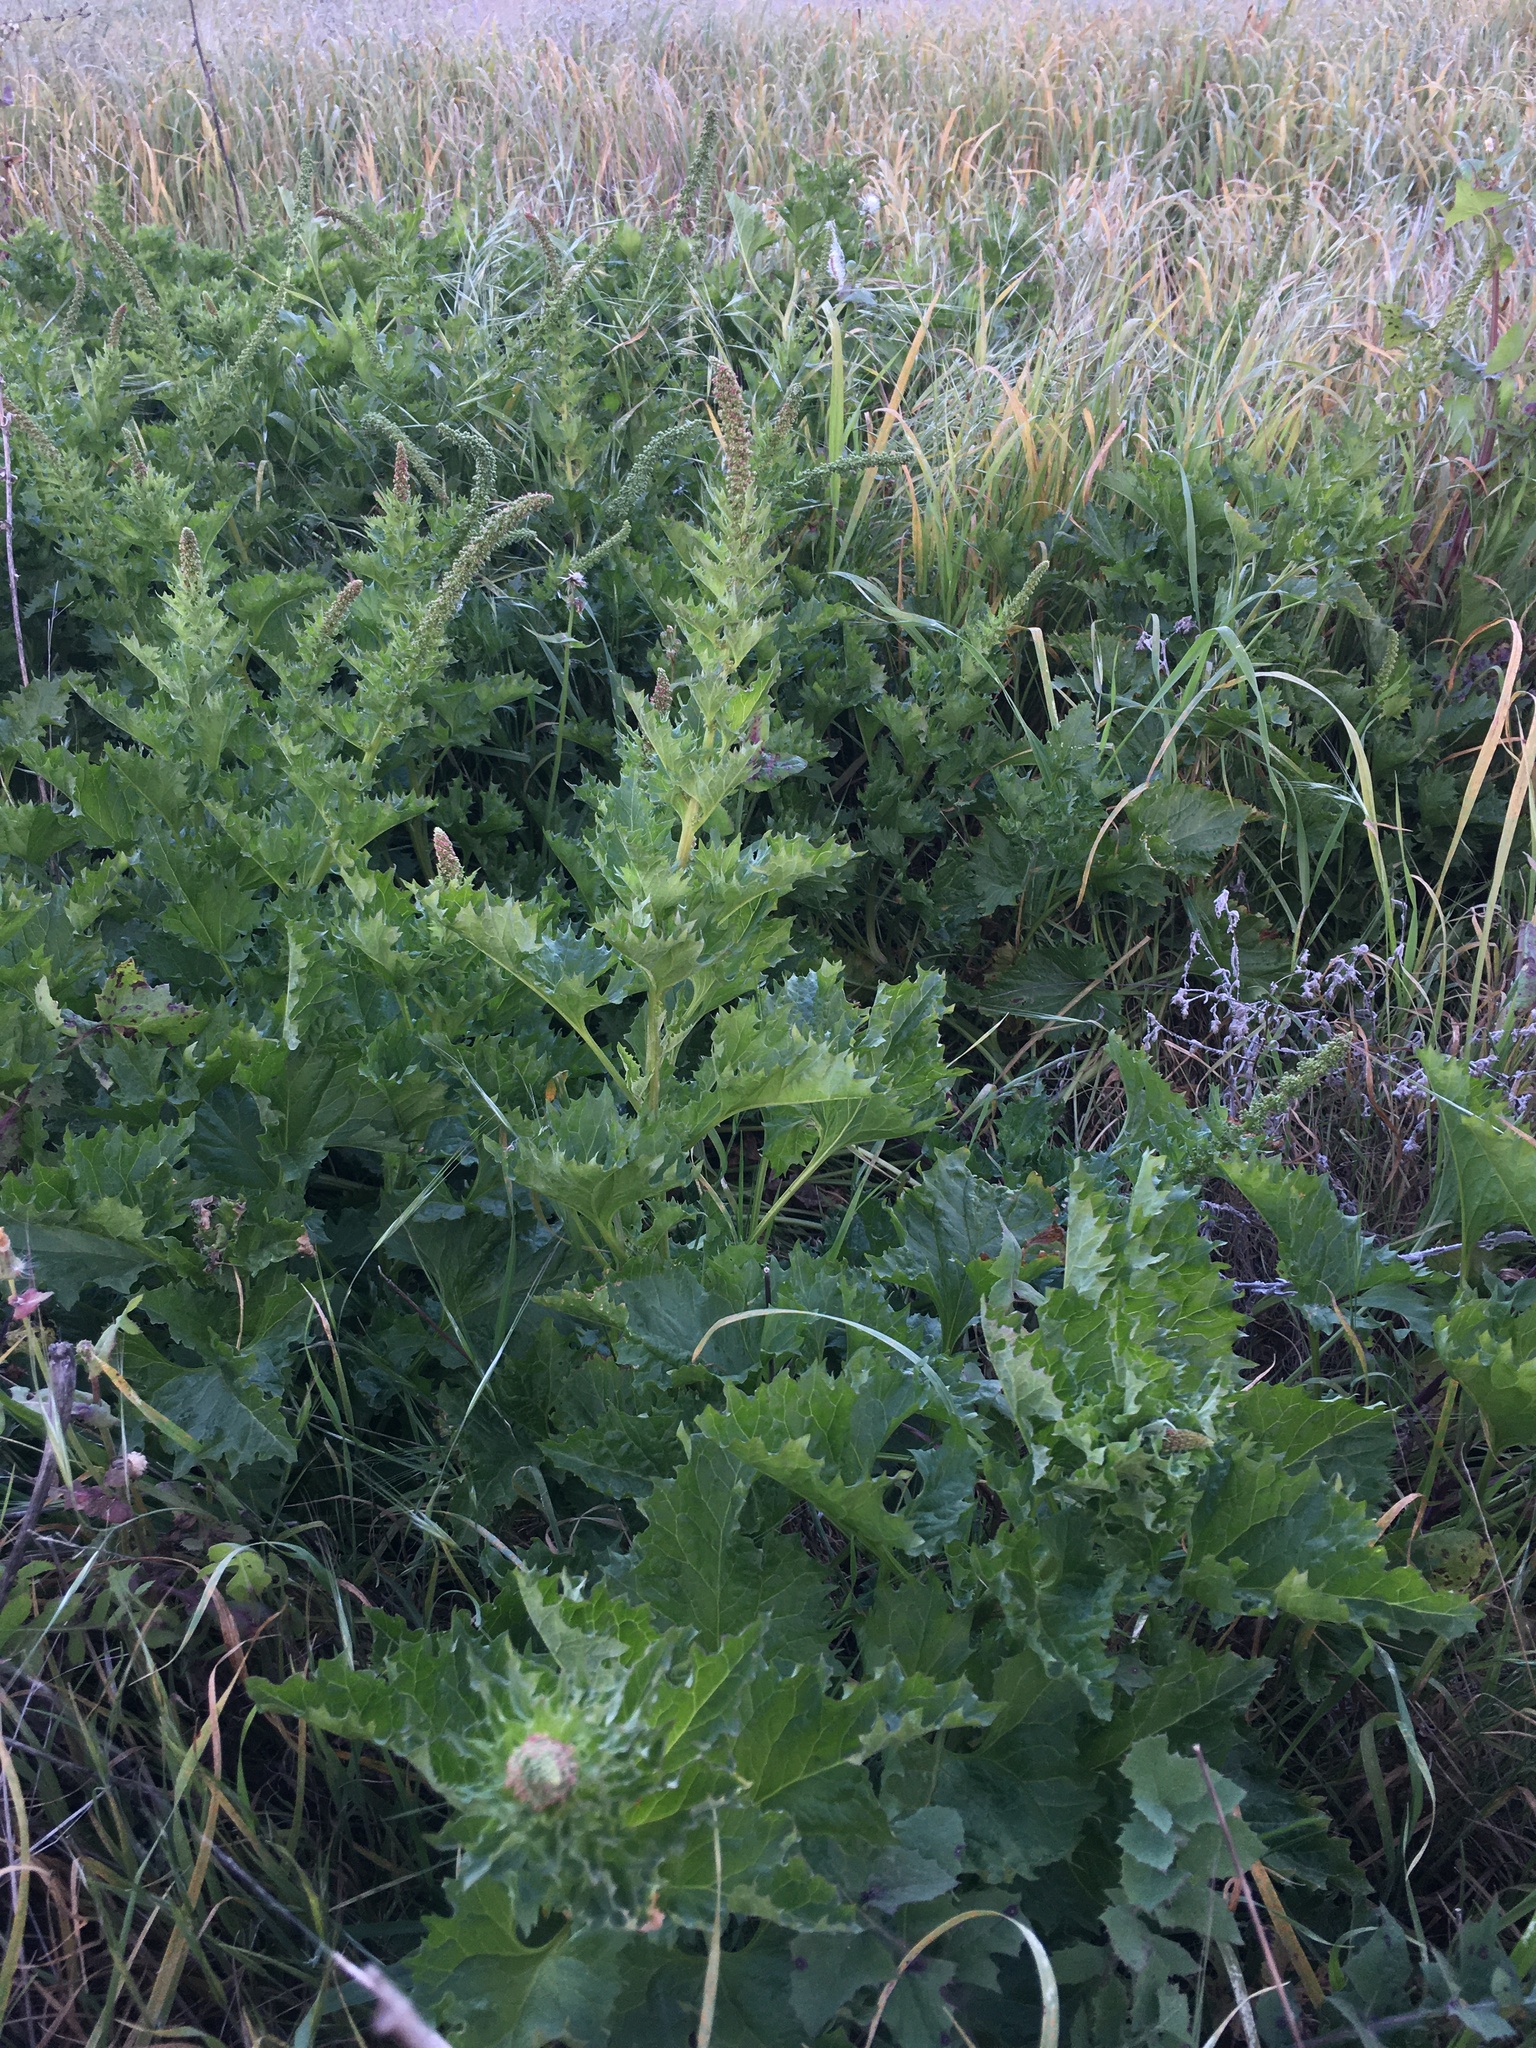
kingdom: Plantae
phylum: Tracheophyta
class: Magnoliopsida
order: Caryophyllales
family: Amaranthaceae
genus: Blitum
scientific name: Blitum californicum
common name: California goosefoot
